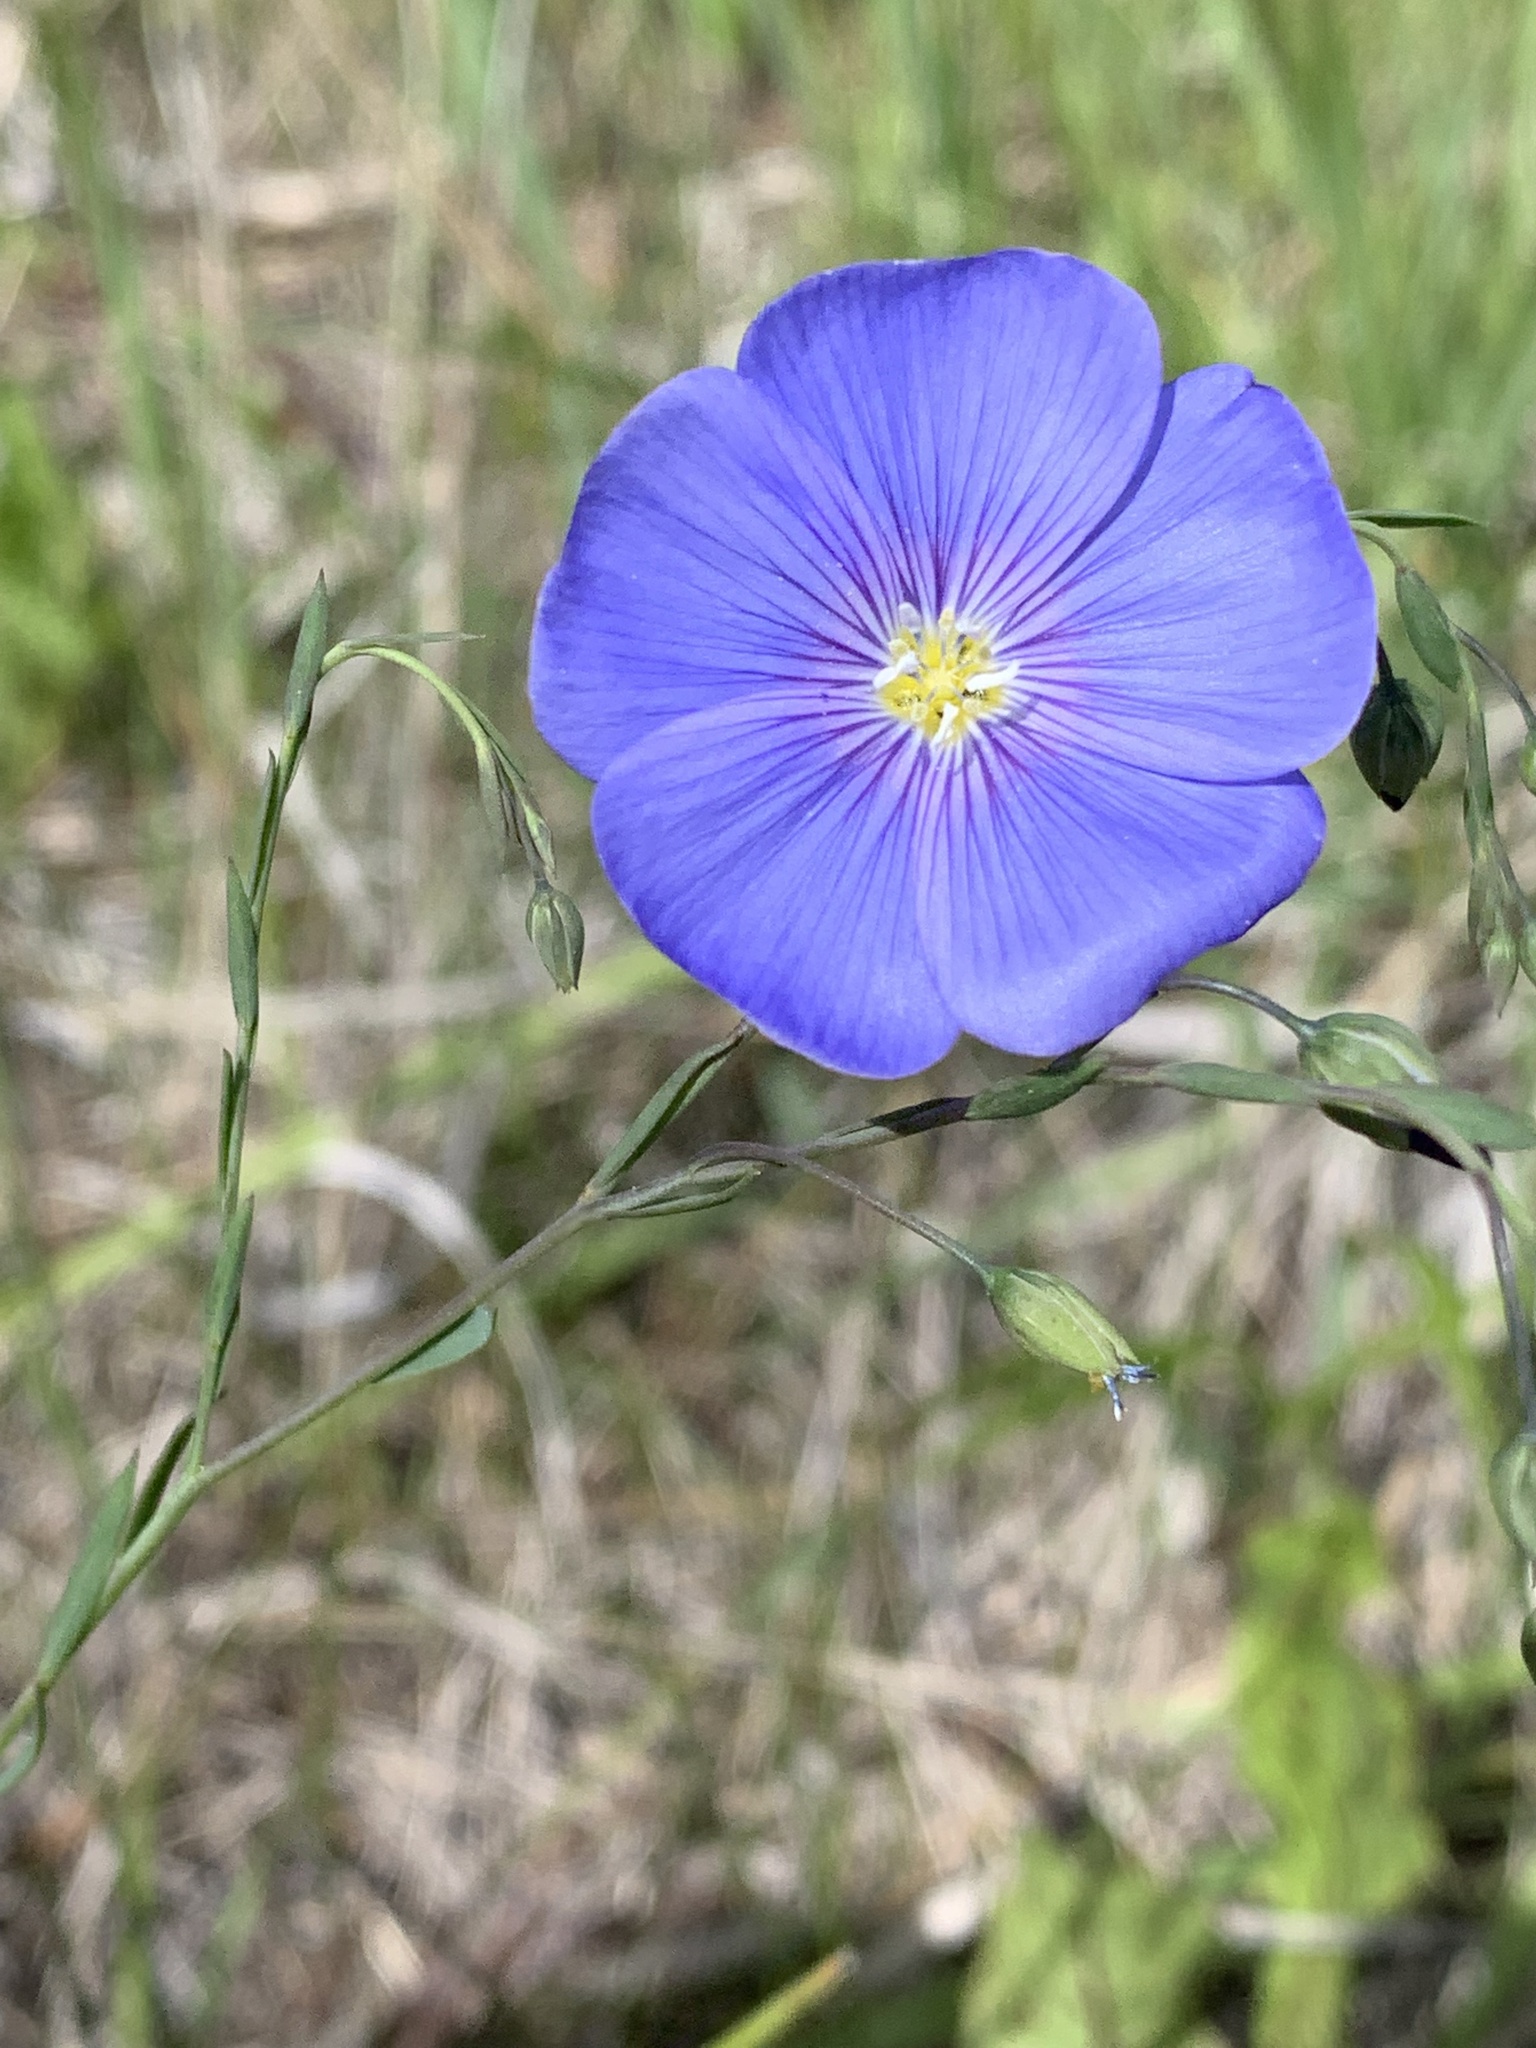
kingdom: Plantae
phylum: Tracheophyta
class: Magnoliopsida
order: Malpighiales
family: Linaceae
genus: Linum
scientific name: Linum lewisii
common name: Prairie flax
